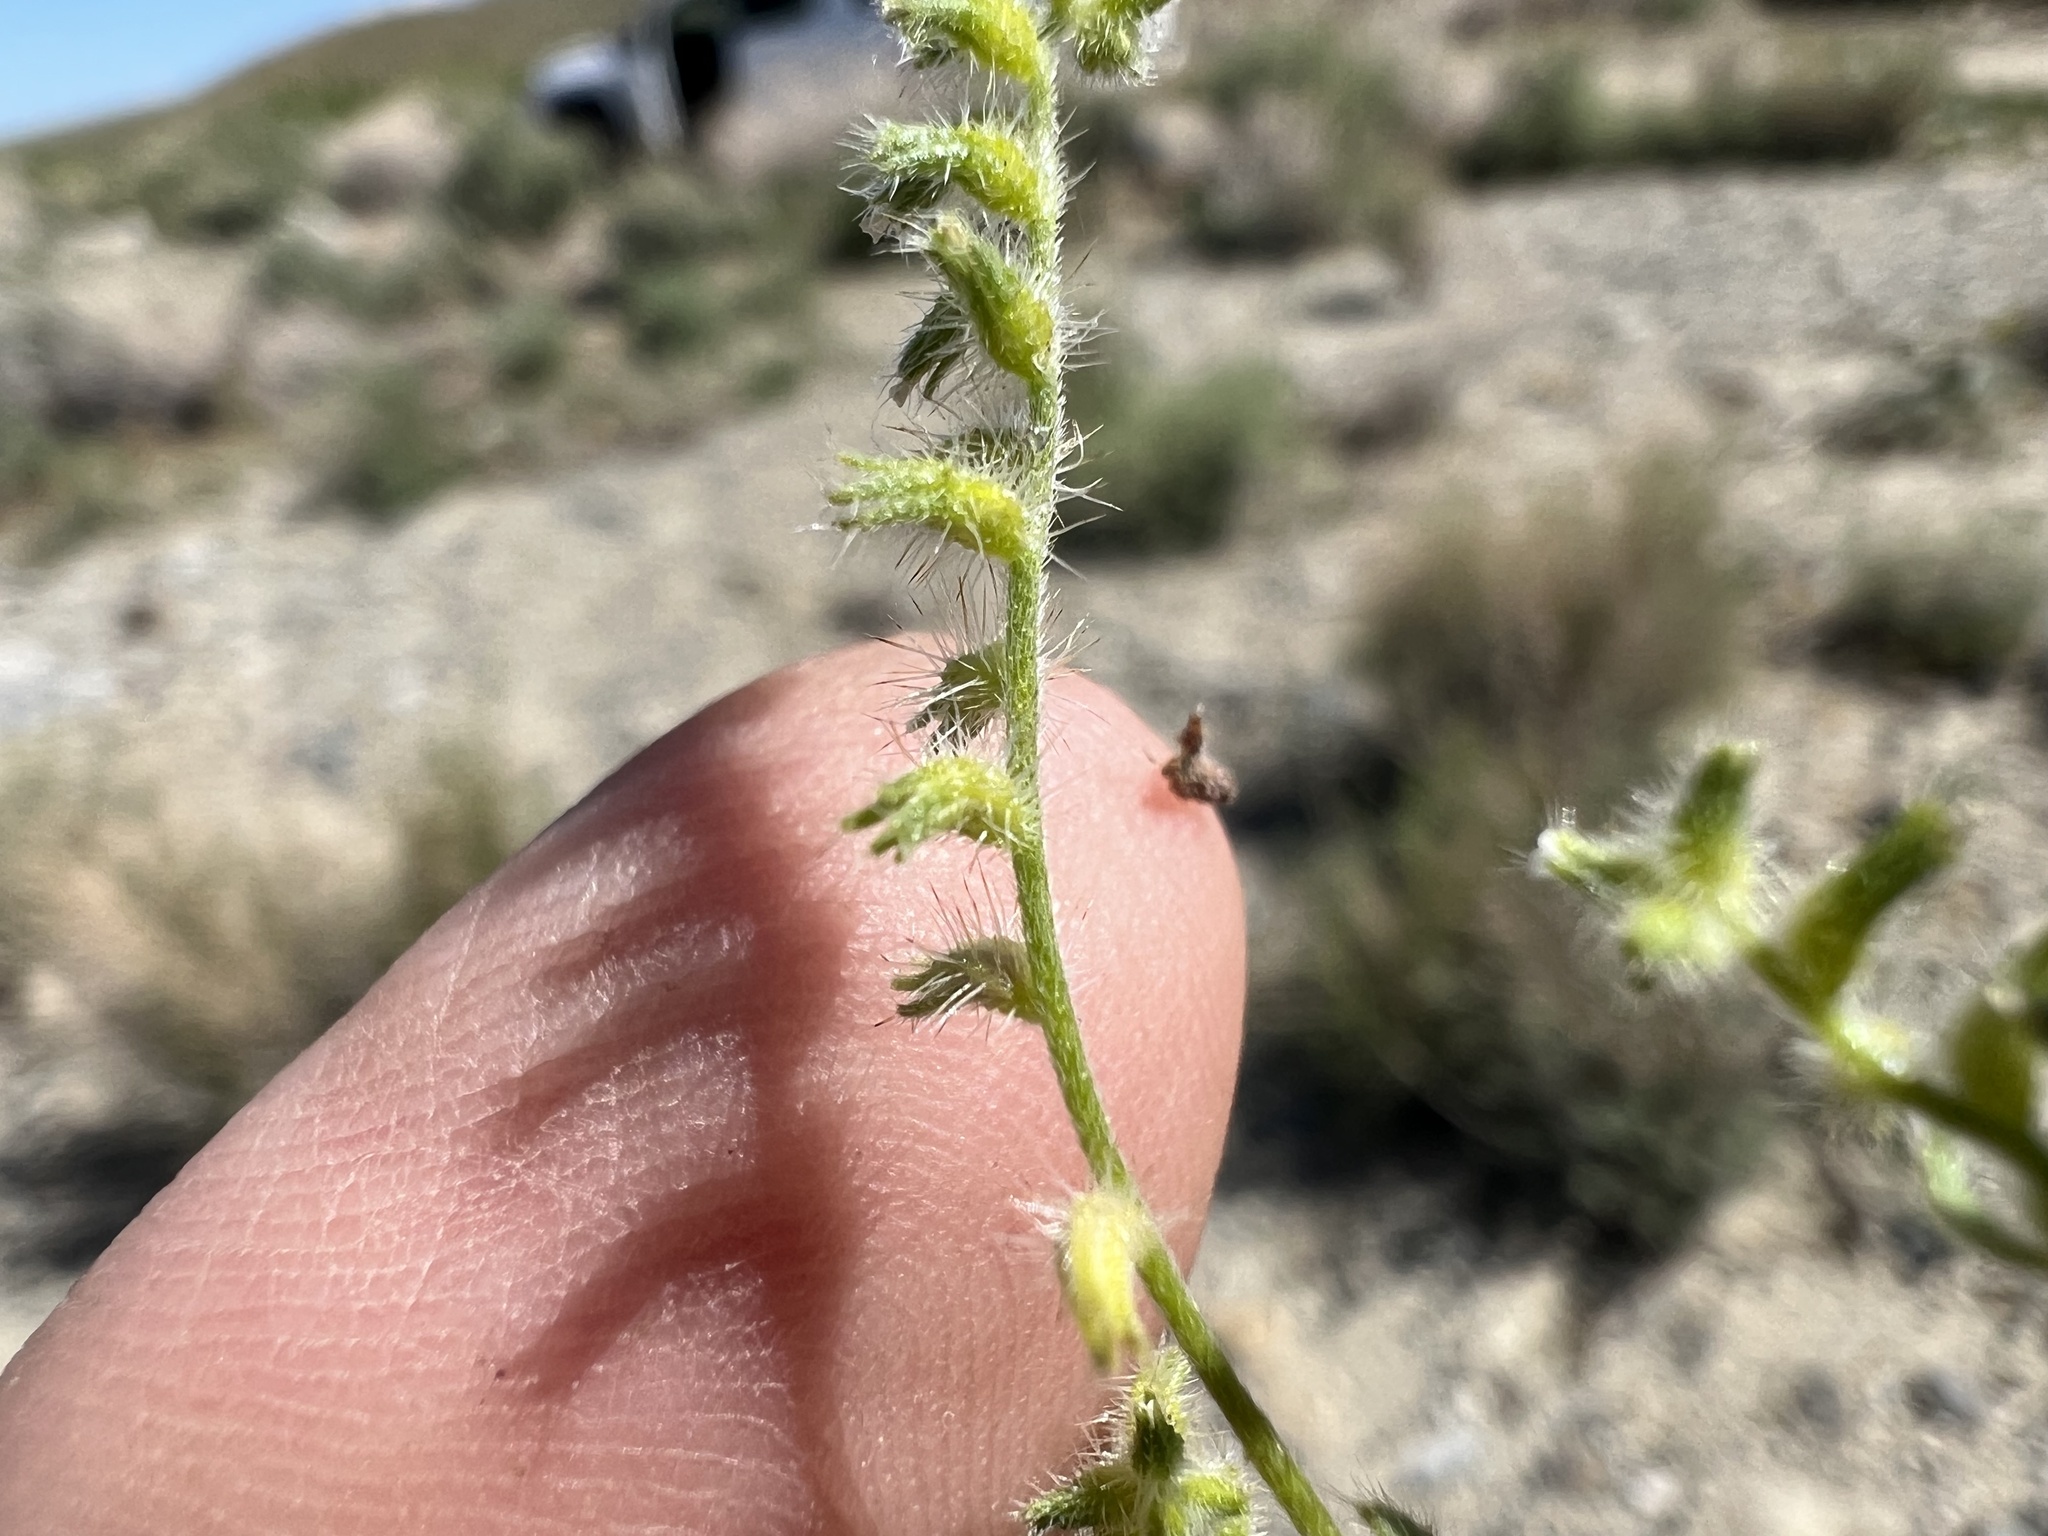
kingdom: Plantae
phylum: Tracheophyta
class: Magnoliopsida
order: Boraginales
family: Boraginaceae
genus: Cryptantha
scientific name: Cryptantha recurvata
